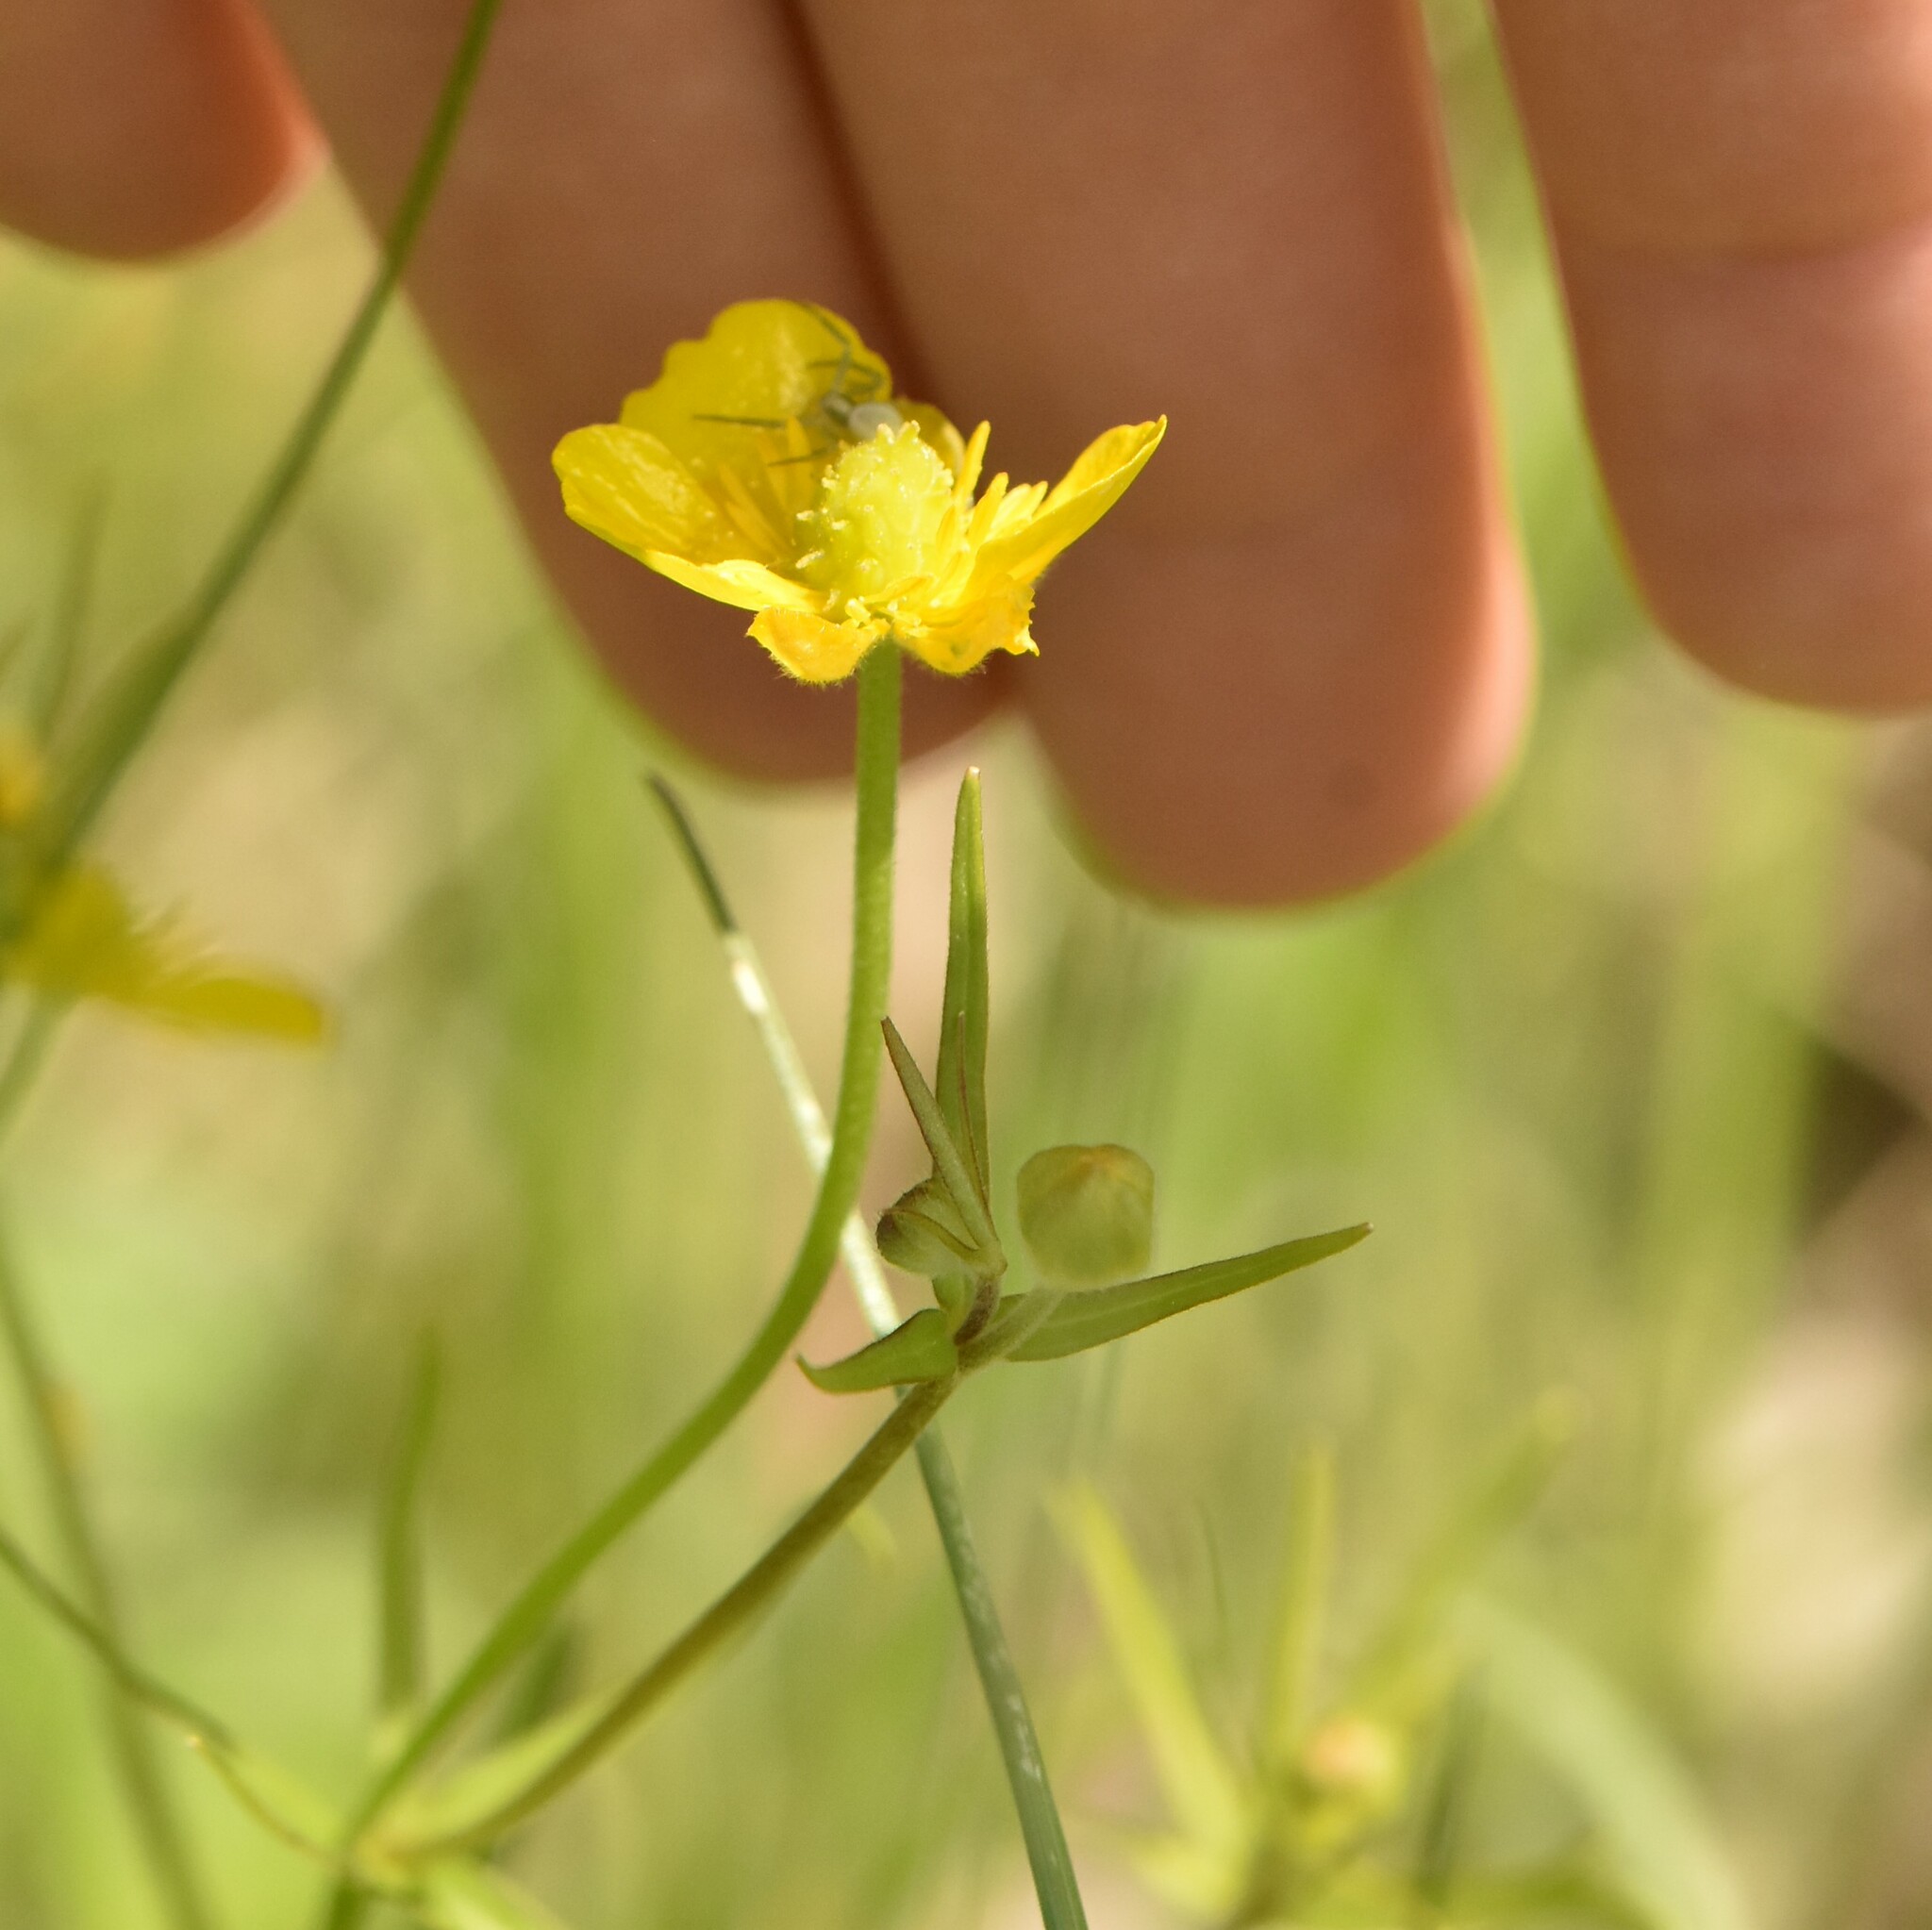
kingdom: Plantae
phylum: Tracheophyta
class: Magnoliopsida
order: Ranunculales
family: Ranunculaceae
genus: Ranunculus
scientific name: Ranunculus auricomus
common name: Goldilocks buttercup
